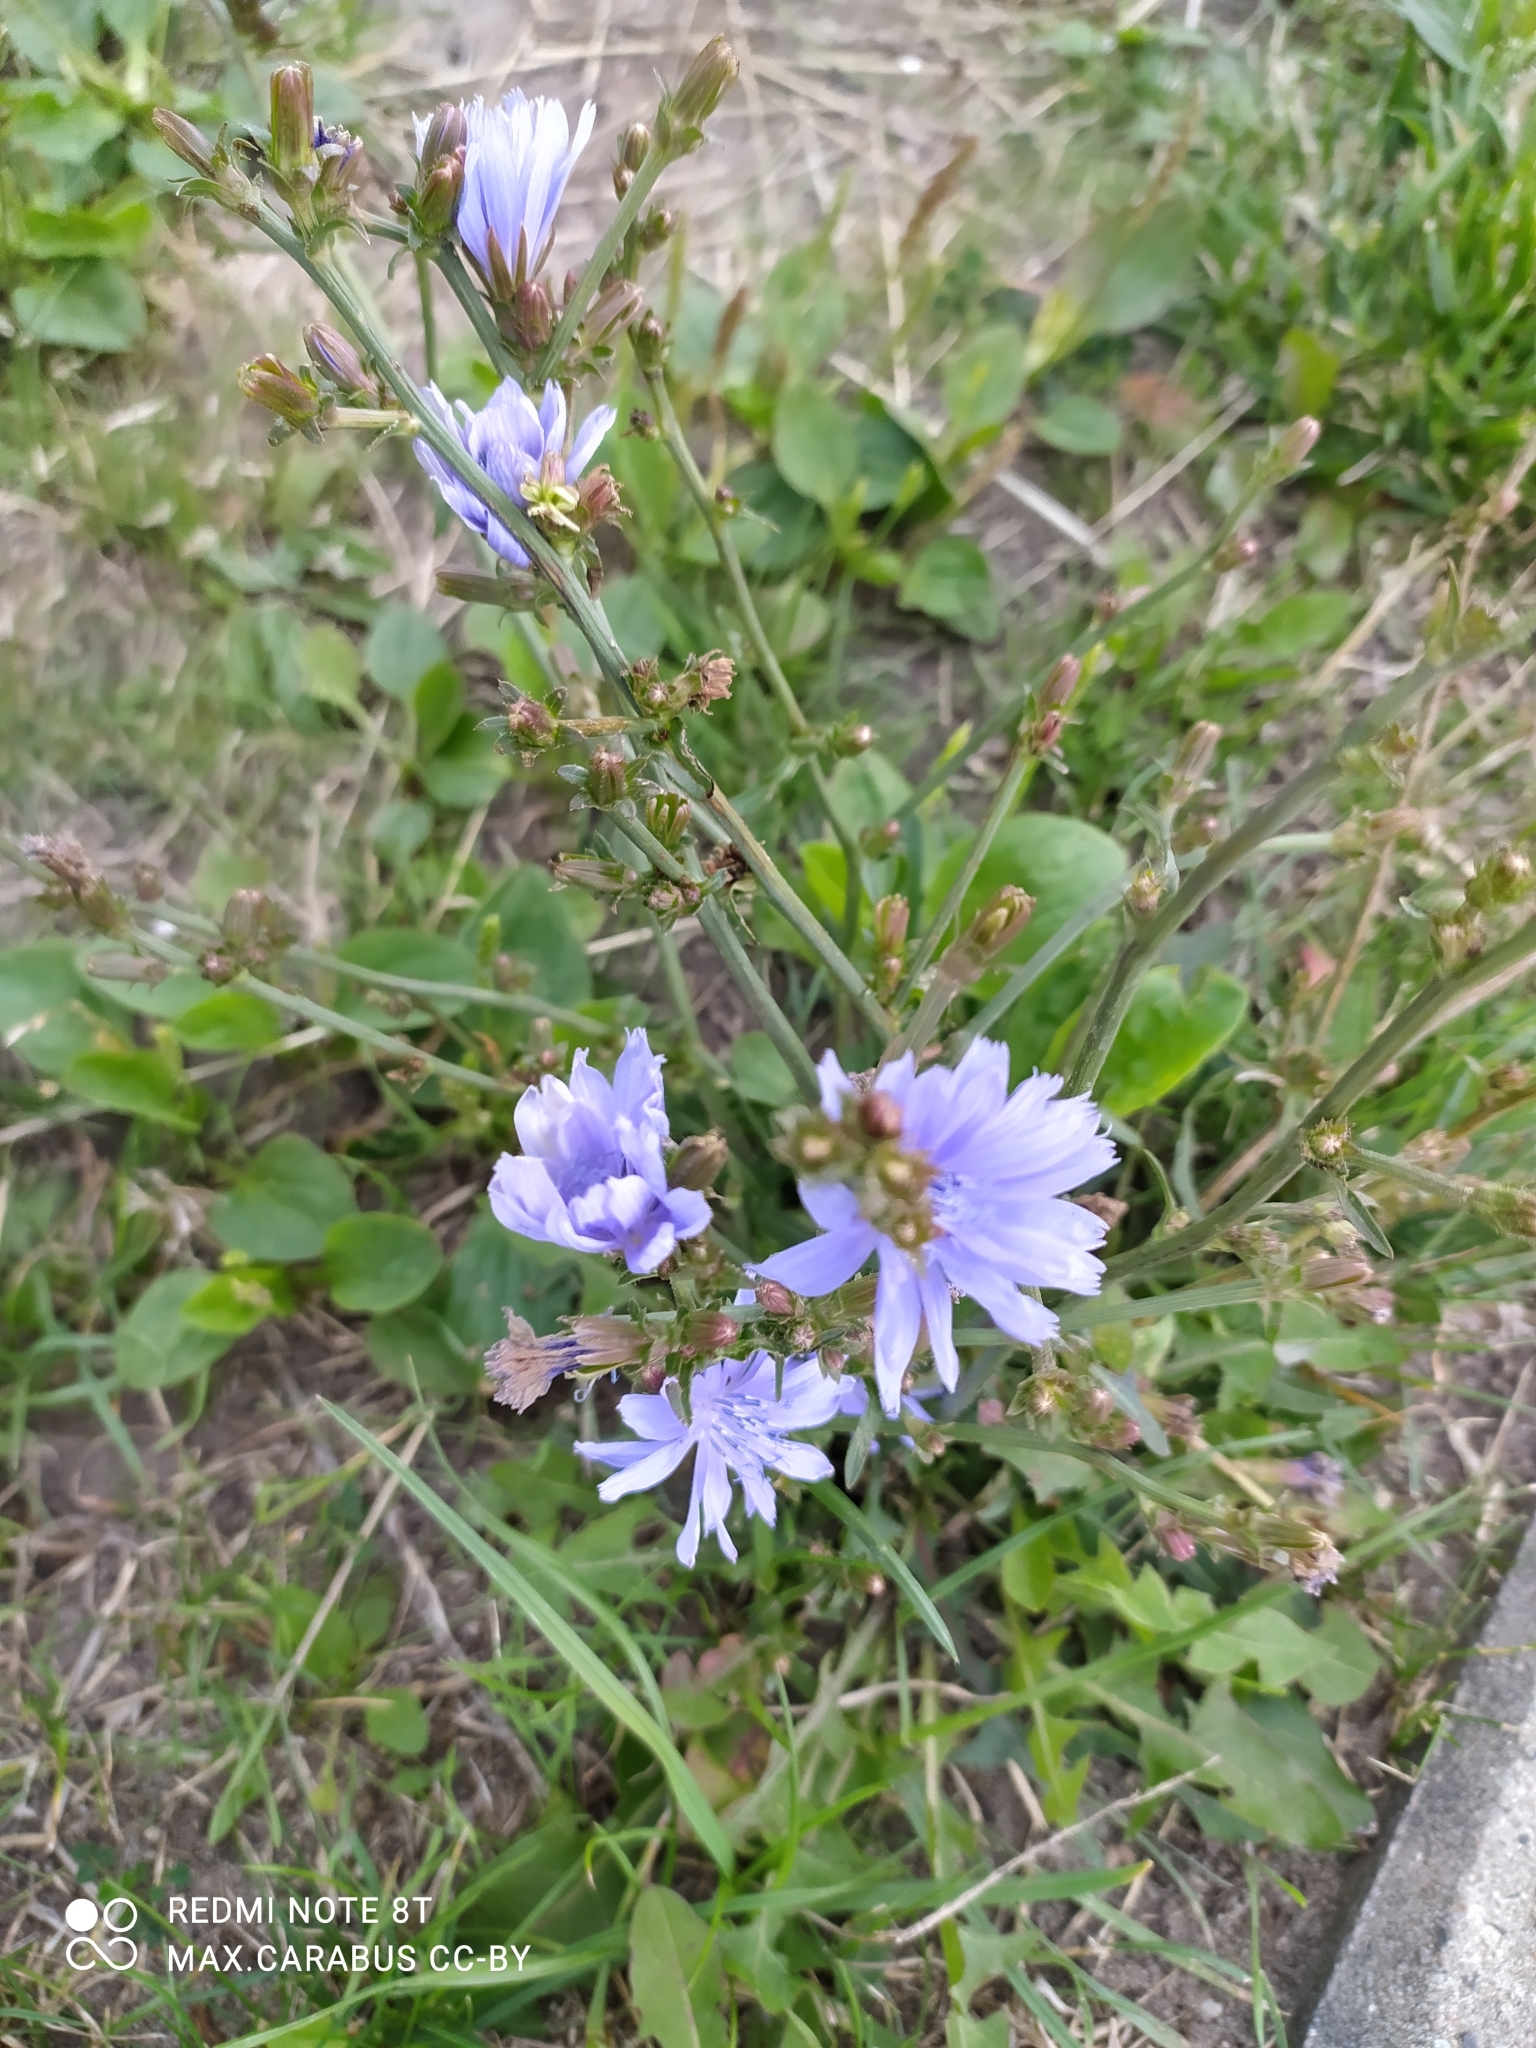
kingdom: Plantae
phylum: Tracheophyta
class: Magnoliopsida
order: Asterales
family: Asteraceae
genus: Cichorium
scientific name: Cichorium intybus
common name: Chicory
